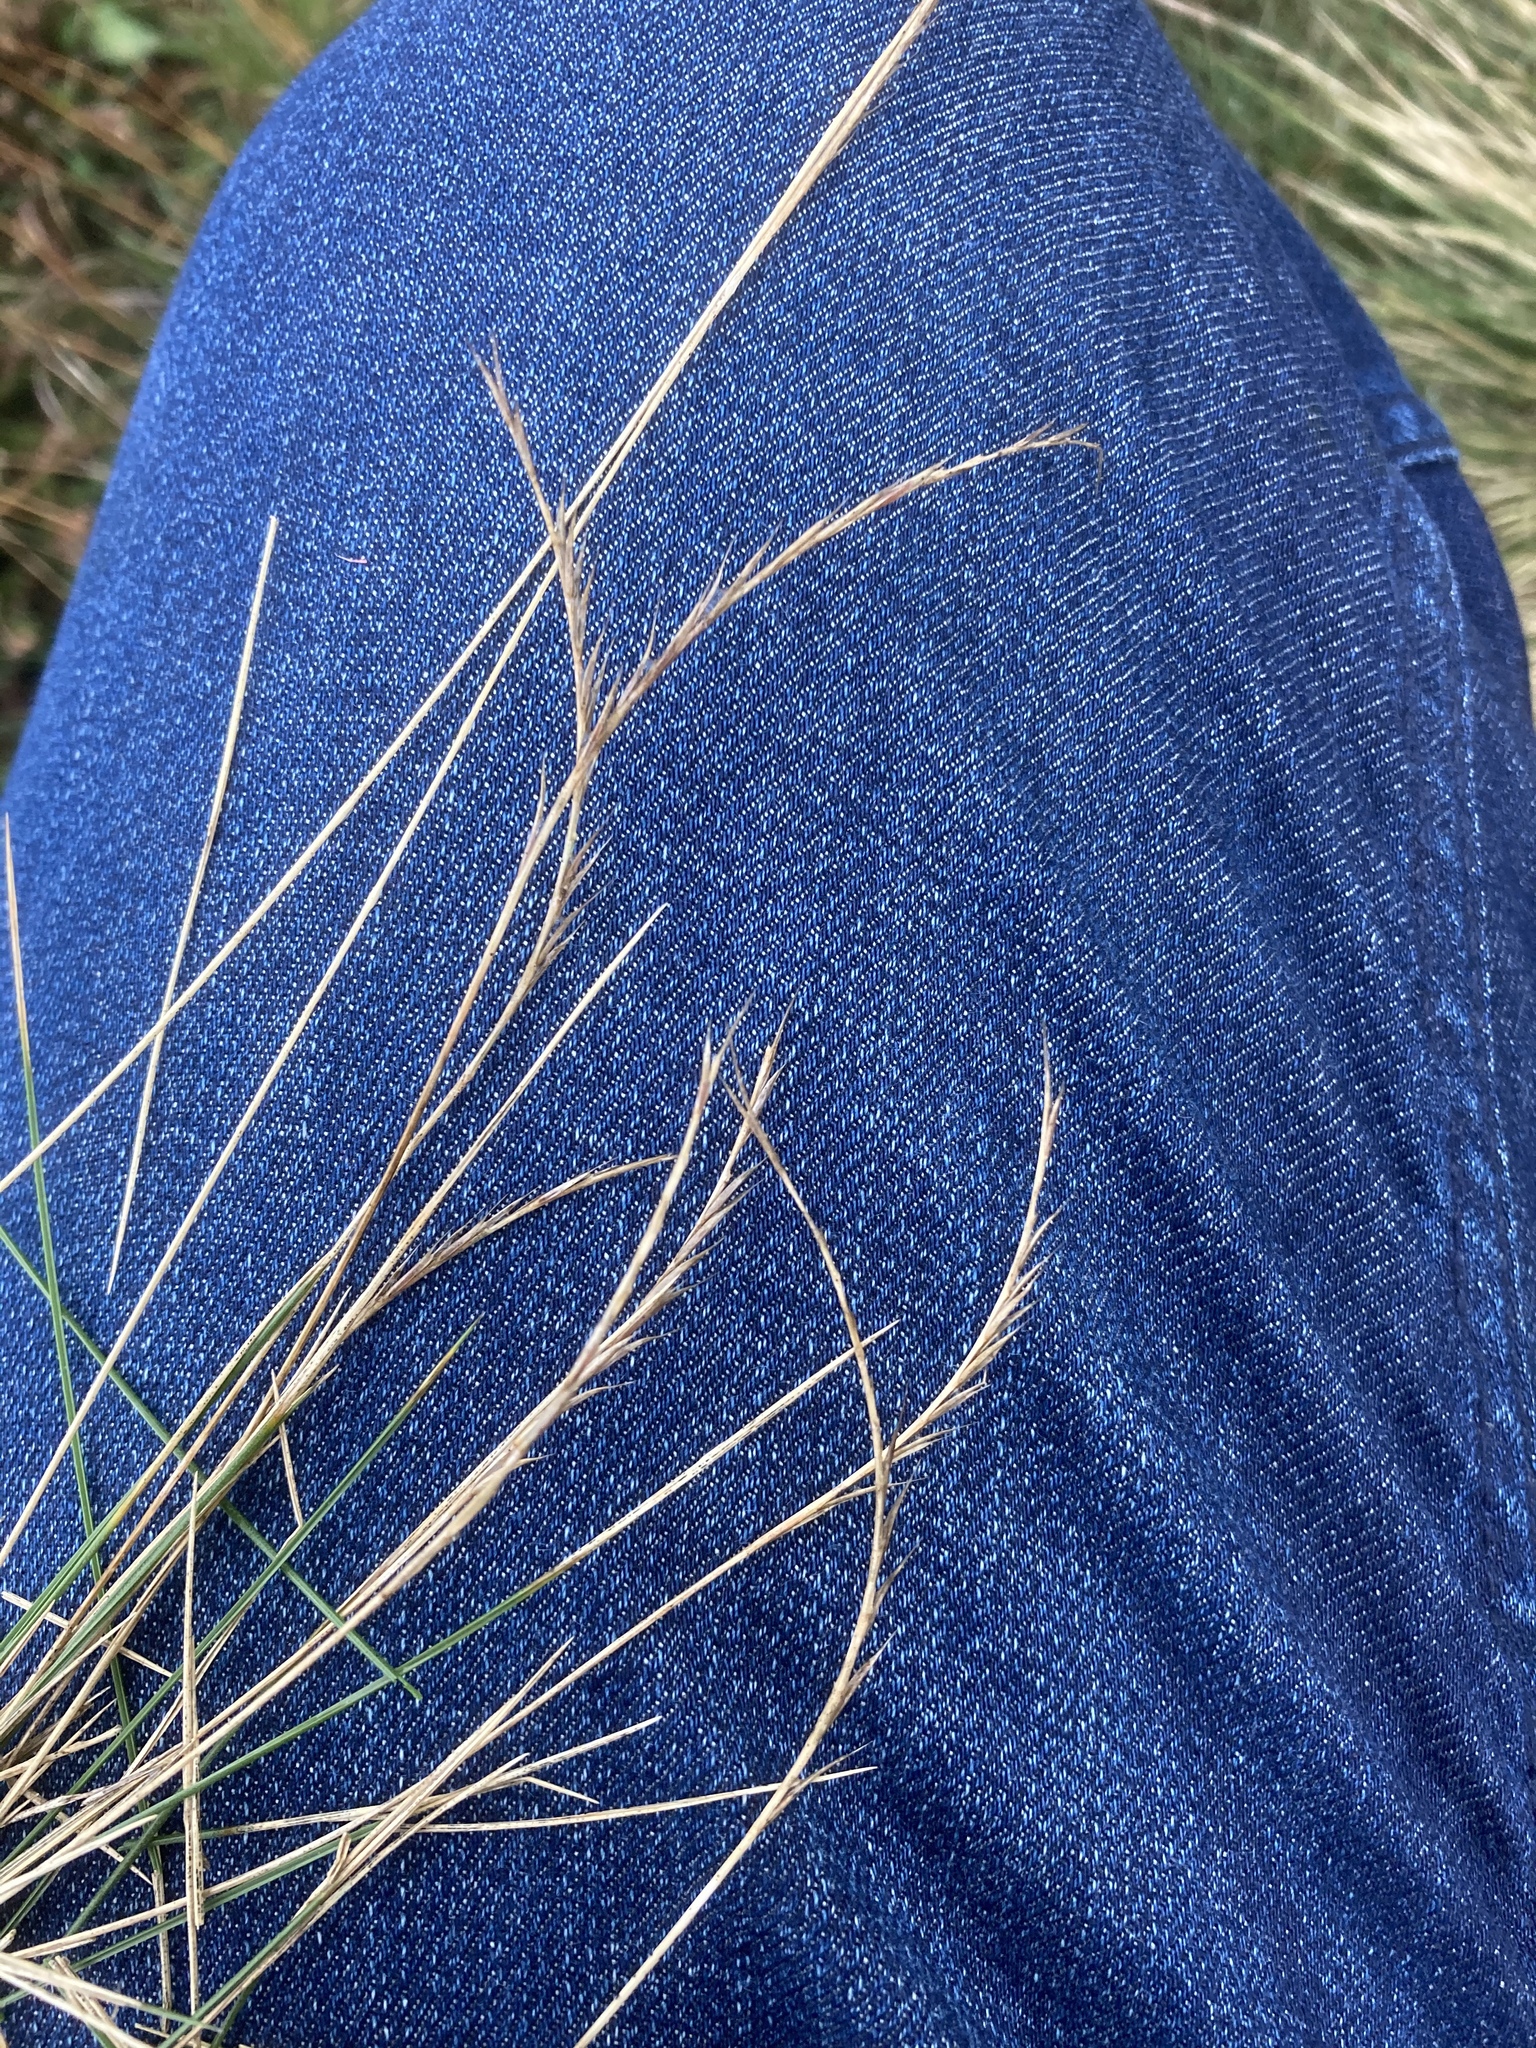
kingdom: Plantae
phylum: Tracheophyta
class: Liliopsida
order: Poales
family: Poaceae
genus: Nardus
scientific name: Nardus stricta
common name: Mat-grass
